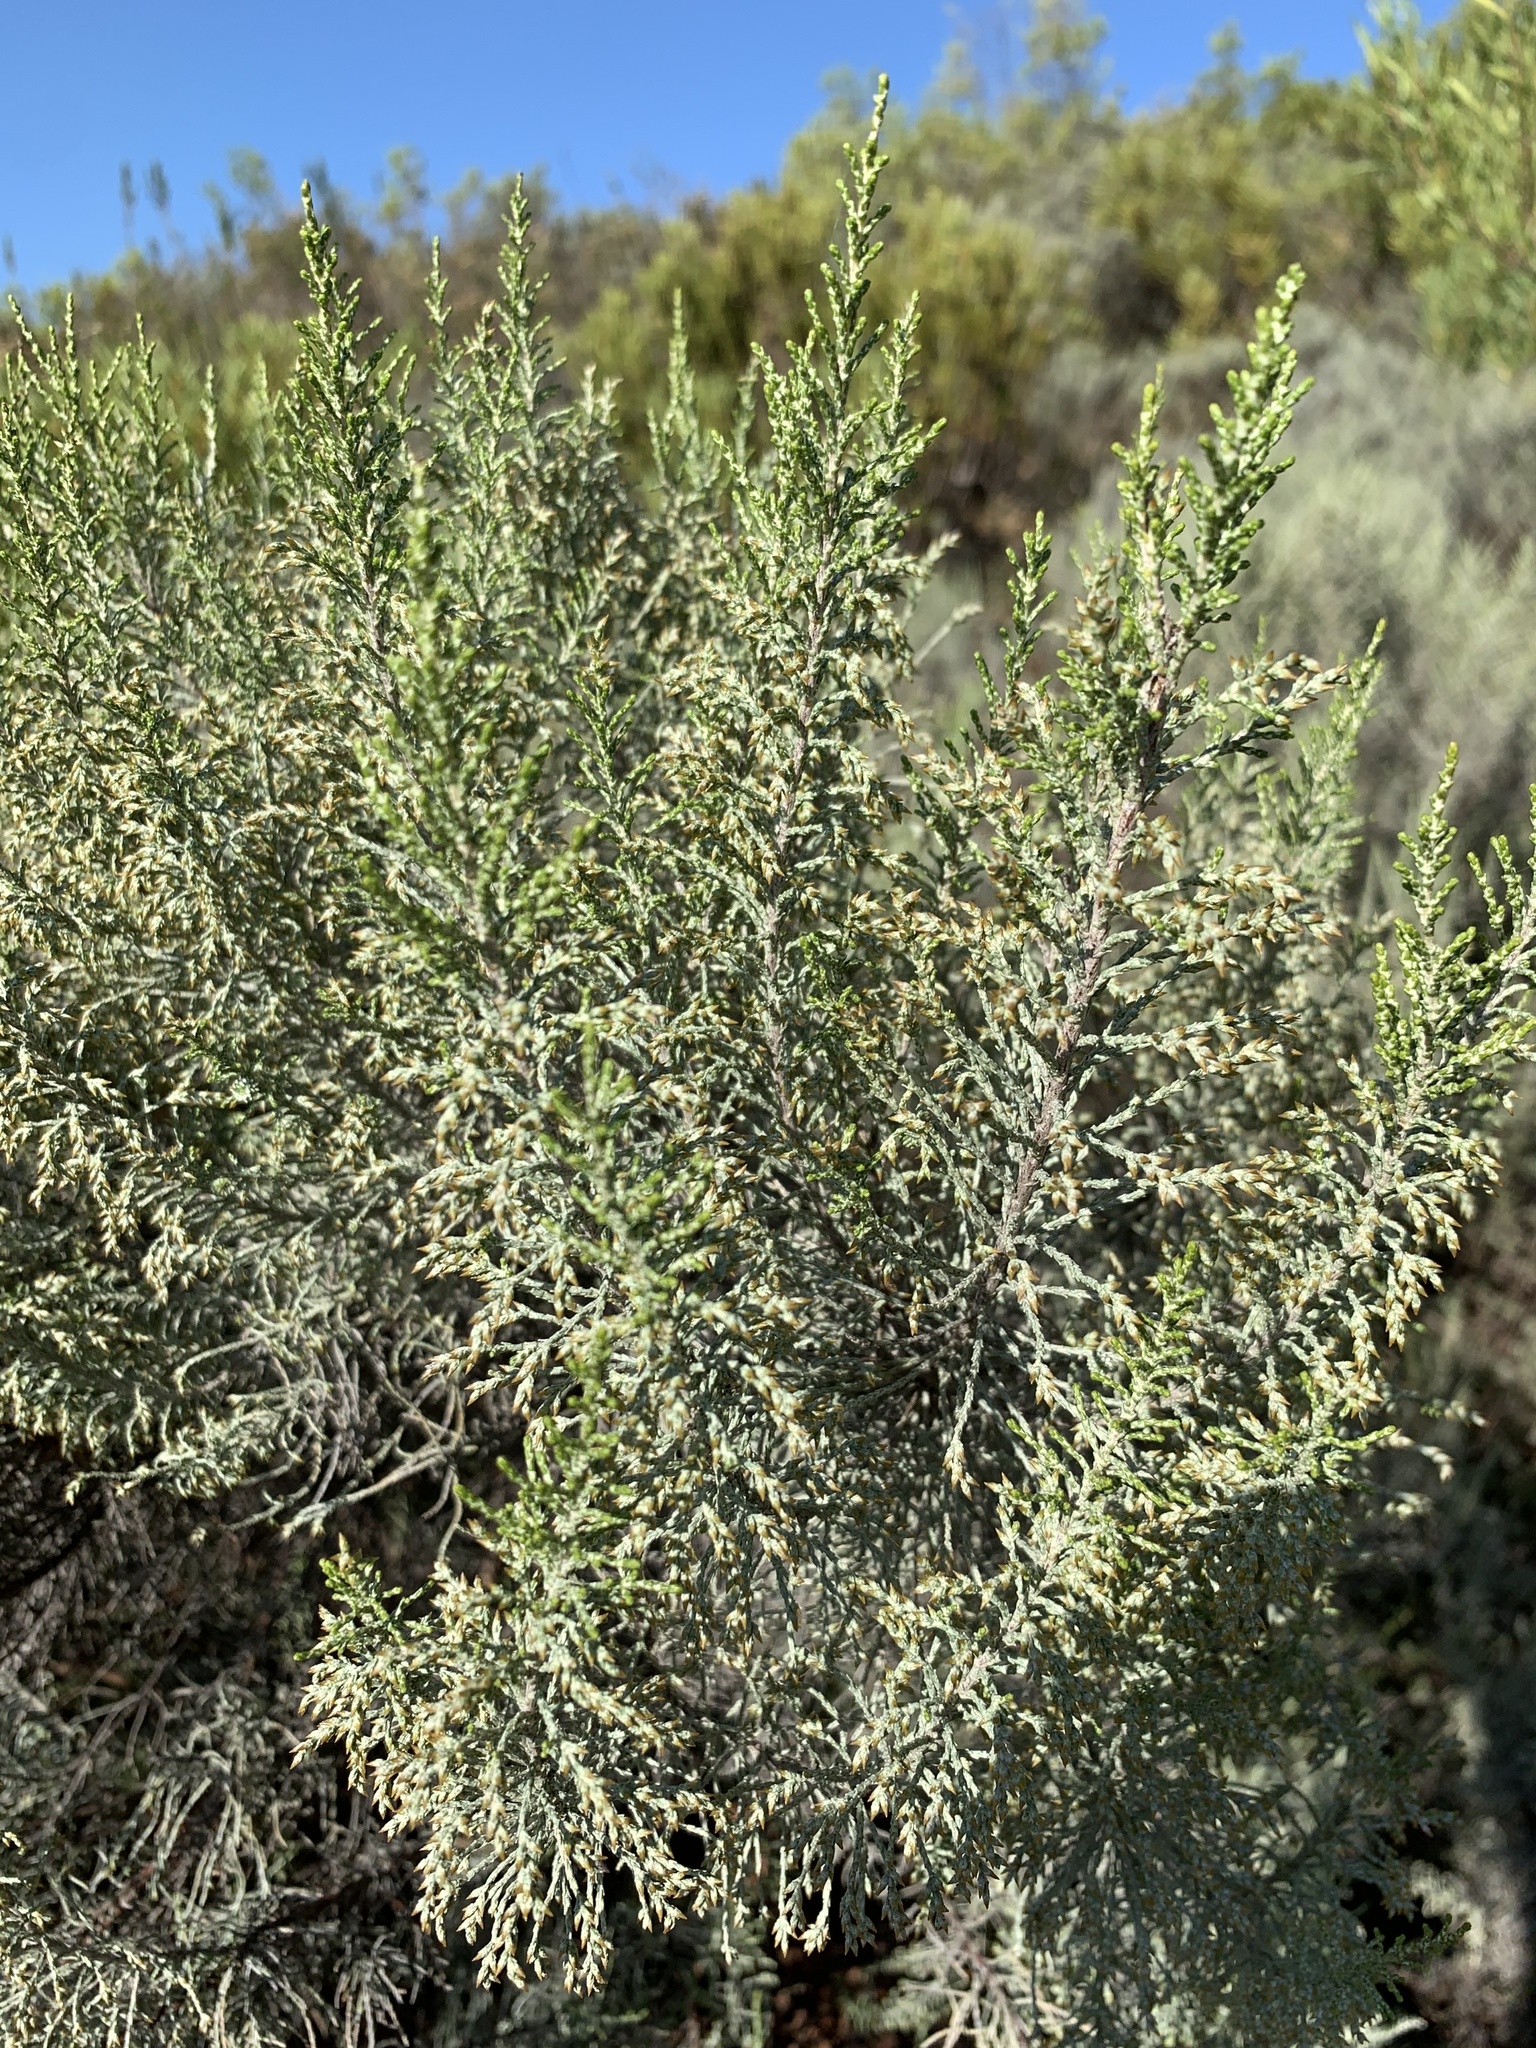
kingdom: Plantae
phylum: Tracheophyta
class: Magnoliopsida
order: Asterales
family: Asteraceae
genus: Dicerothamnus
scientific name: Dicerothamnus rhinocerotis
